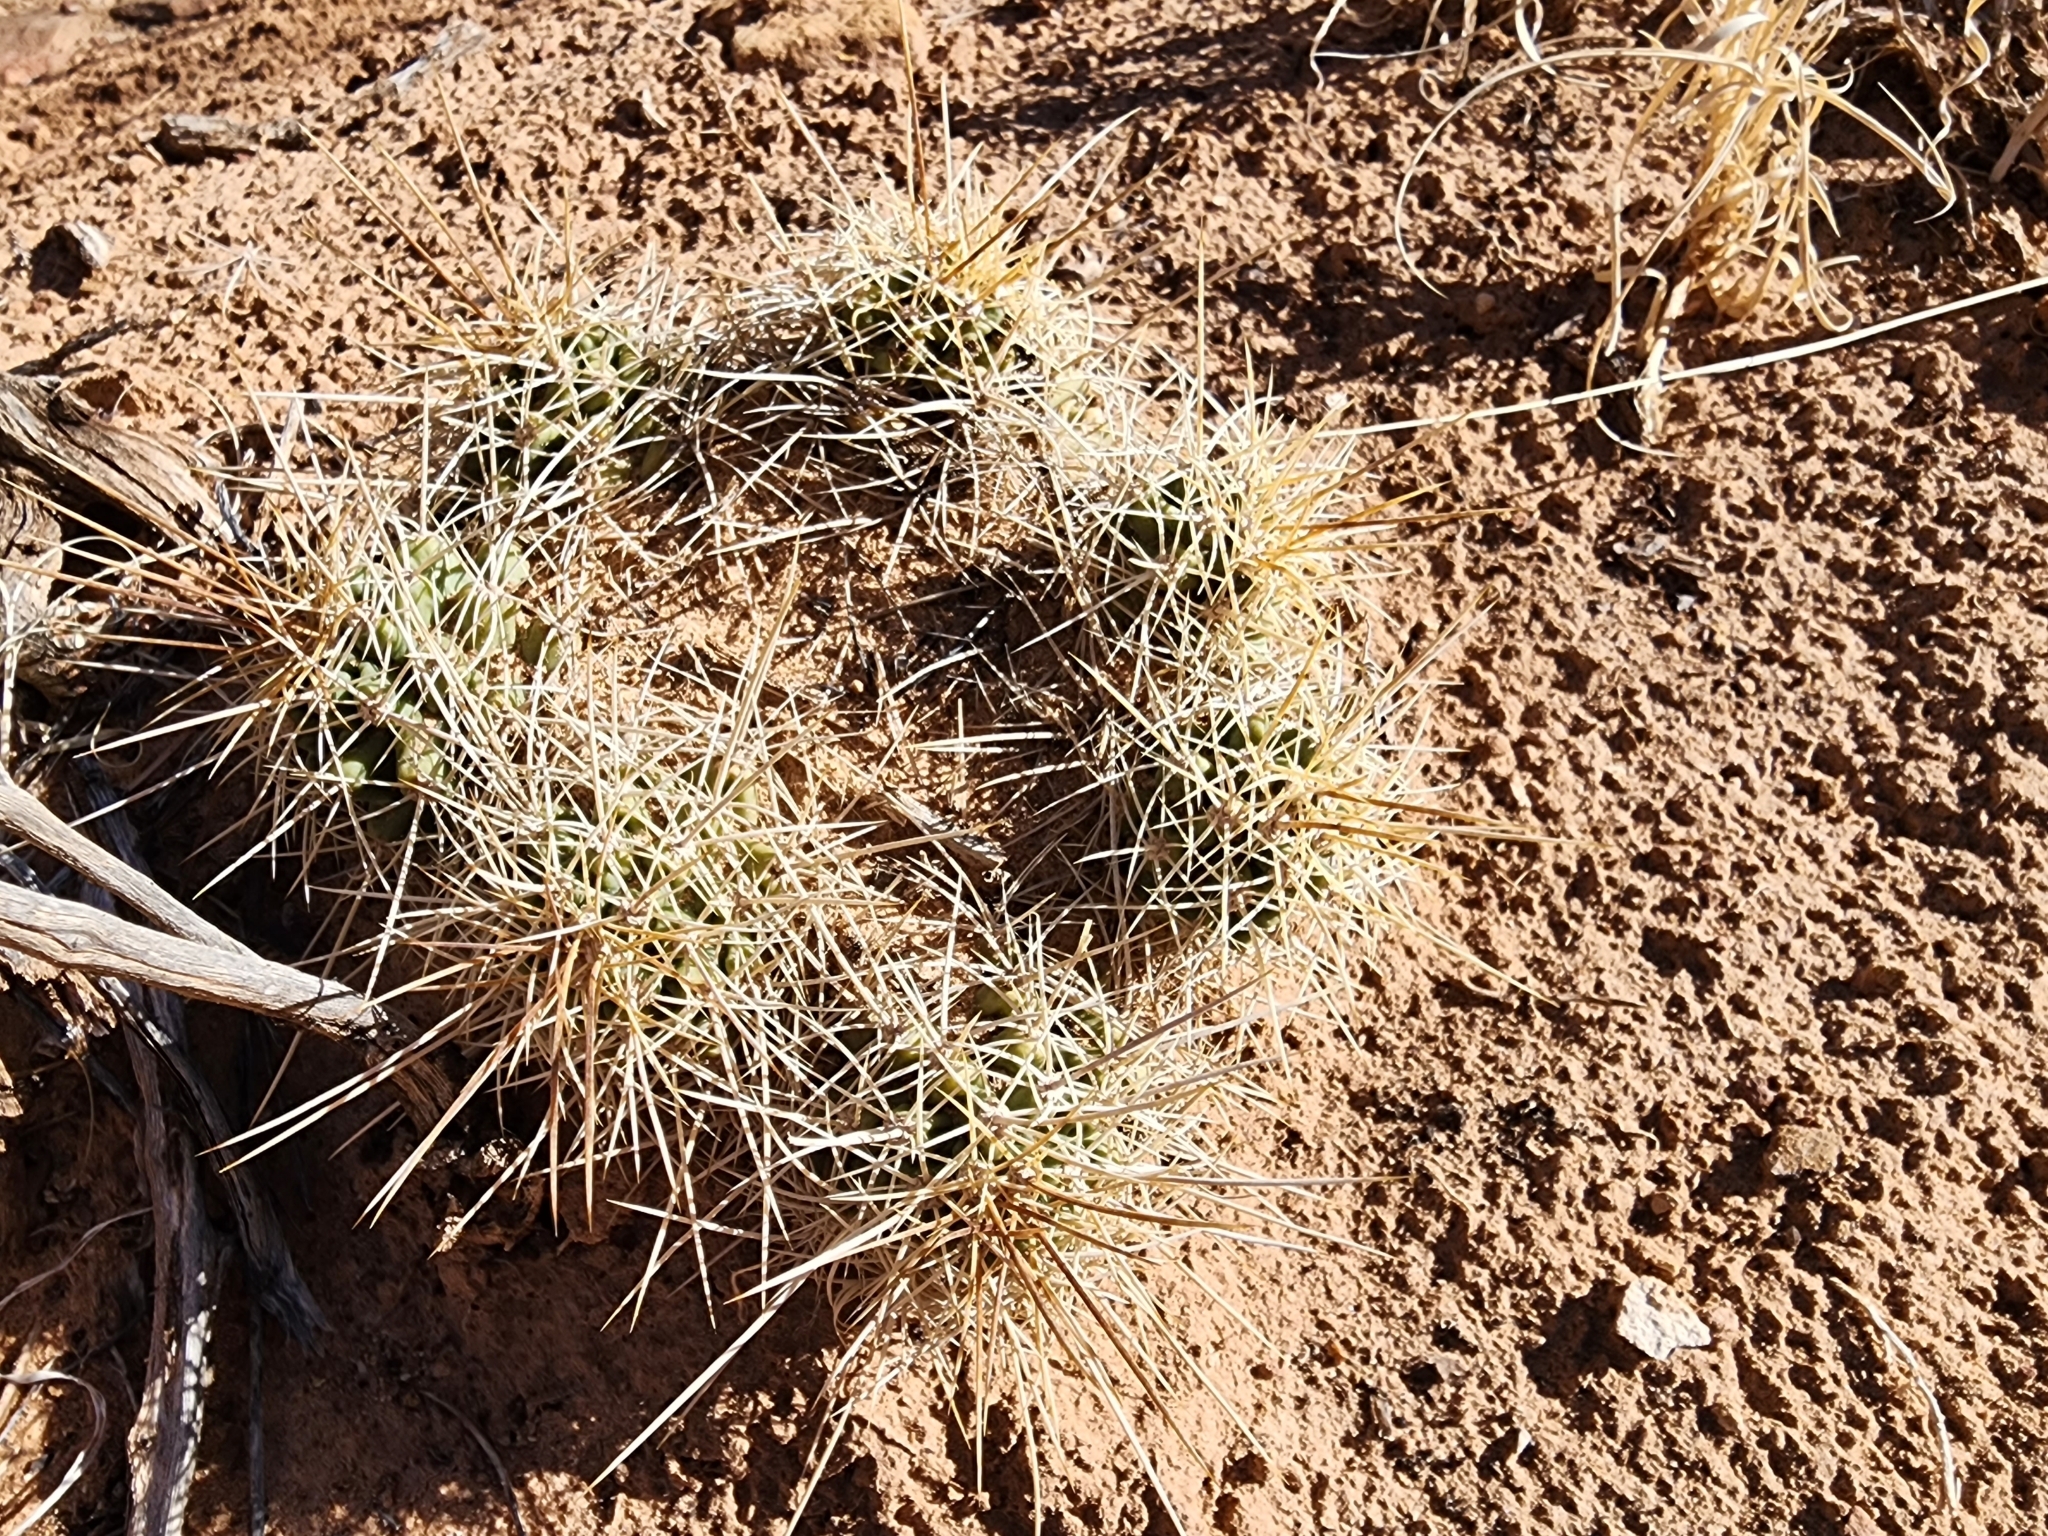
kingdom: Plantae
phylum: Tracheophyta
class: Magnoliopsida
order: Caryophyllales
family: Cactaceae
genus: Echinocereus
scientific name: Echinocereus triglochidiatus
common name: Claretcup hedgehog
